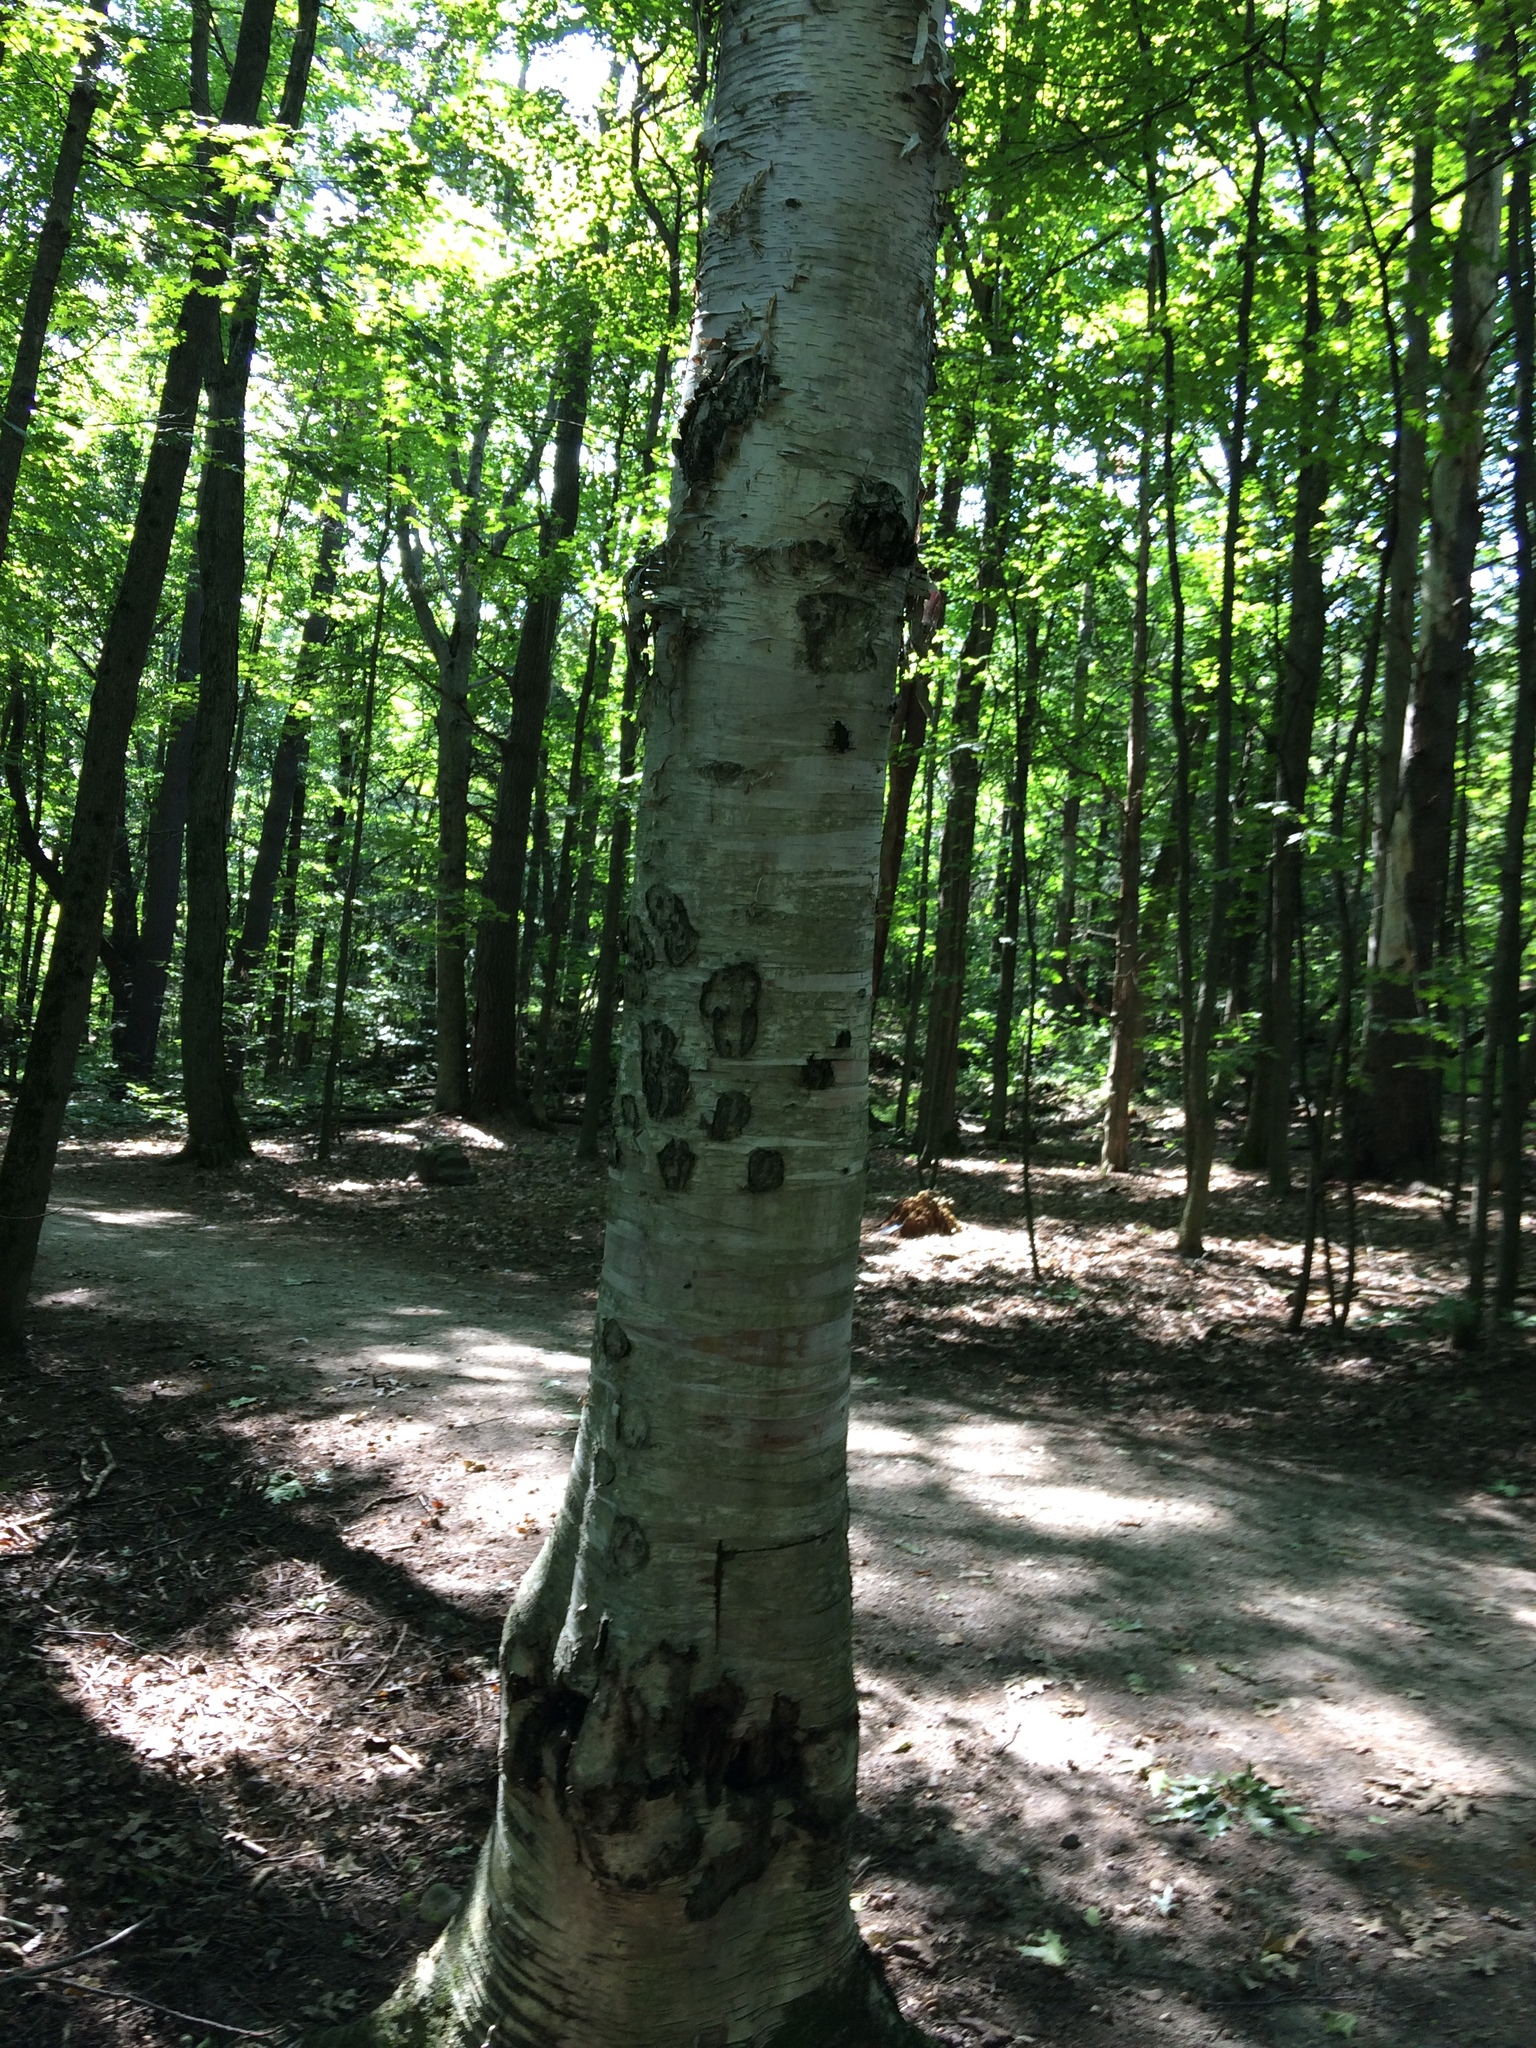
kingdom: Plantae
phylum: Tracheophyta
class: Magnoliopsida
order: Fagales
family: Betulaceae
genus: Betula
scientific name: Betula papyrifera
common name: Paper birch
